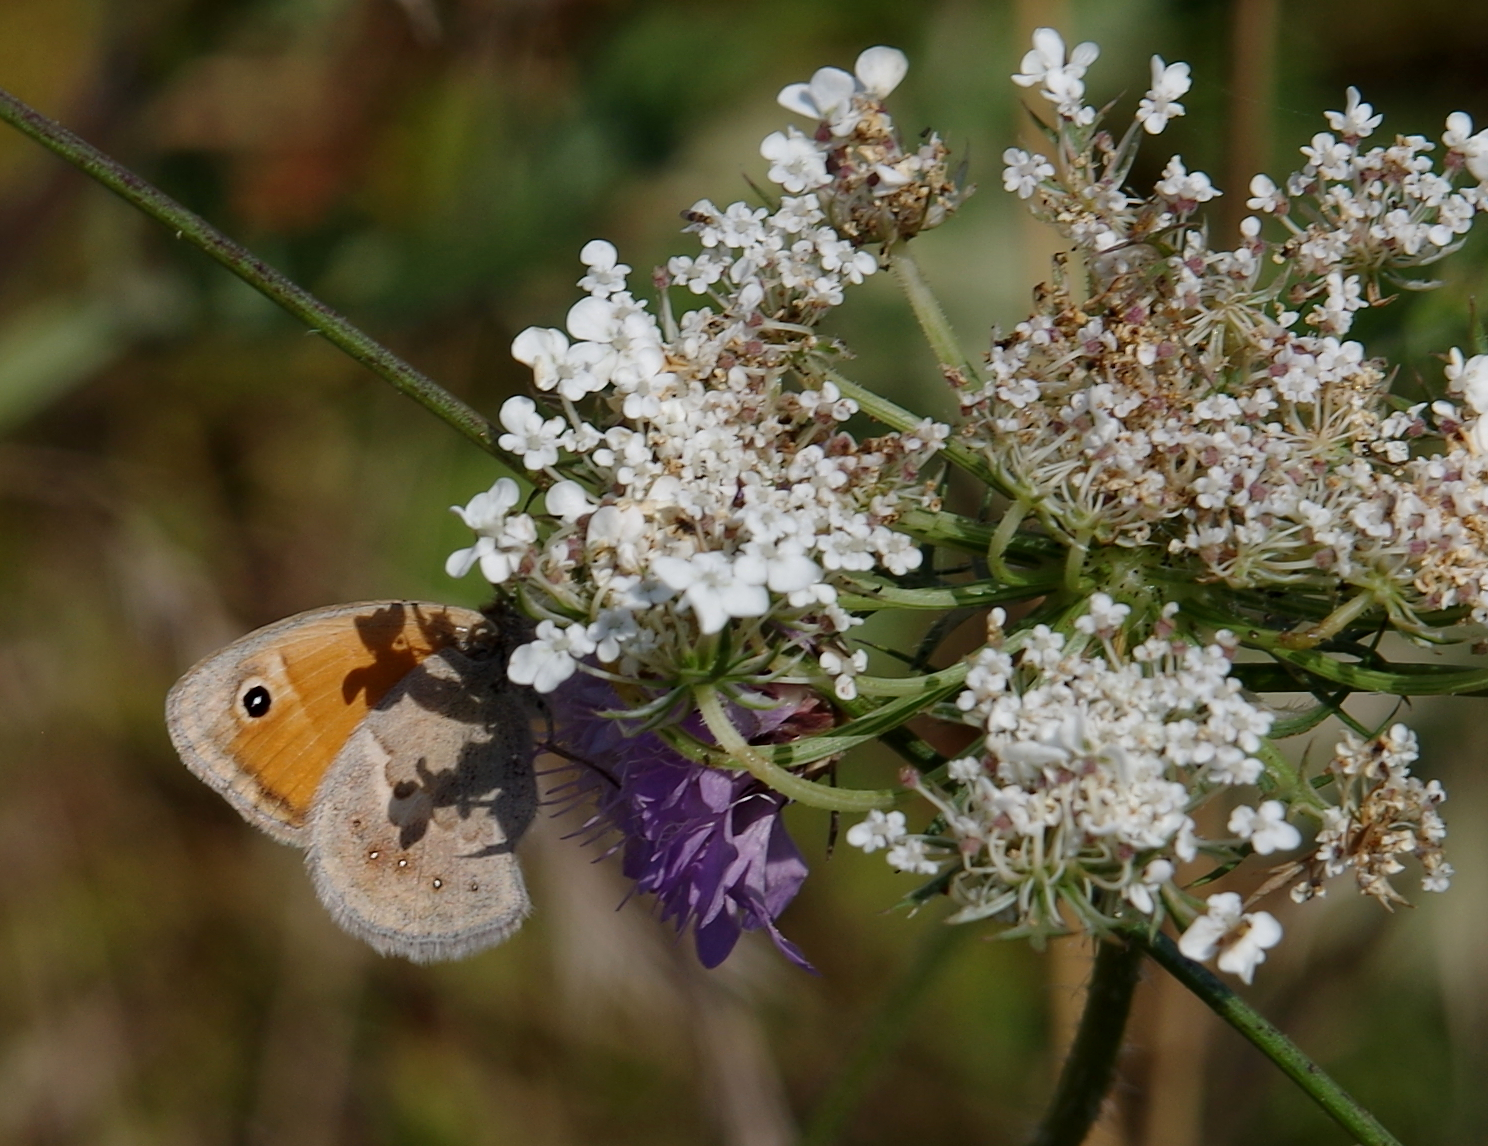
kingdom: Animalia
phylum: Arthropoda
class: Insecta
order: Lepidoptera
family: Nymphalidae
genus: Coenonympha
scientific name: Coenonympha pamphilus
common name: Small heath
